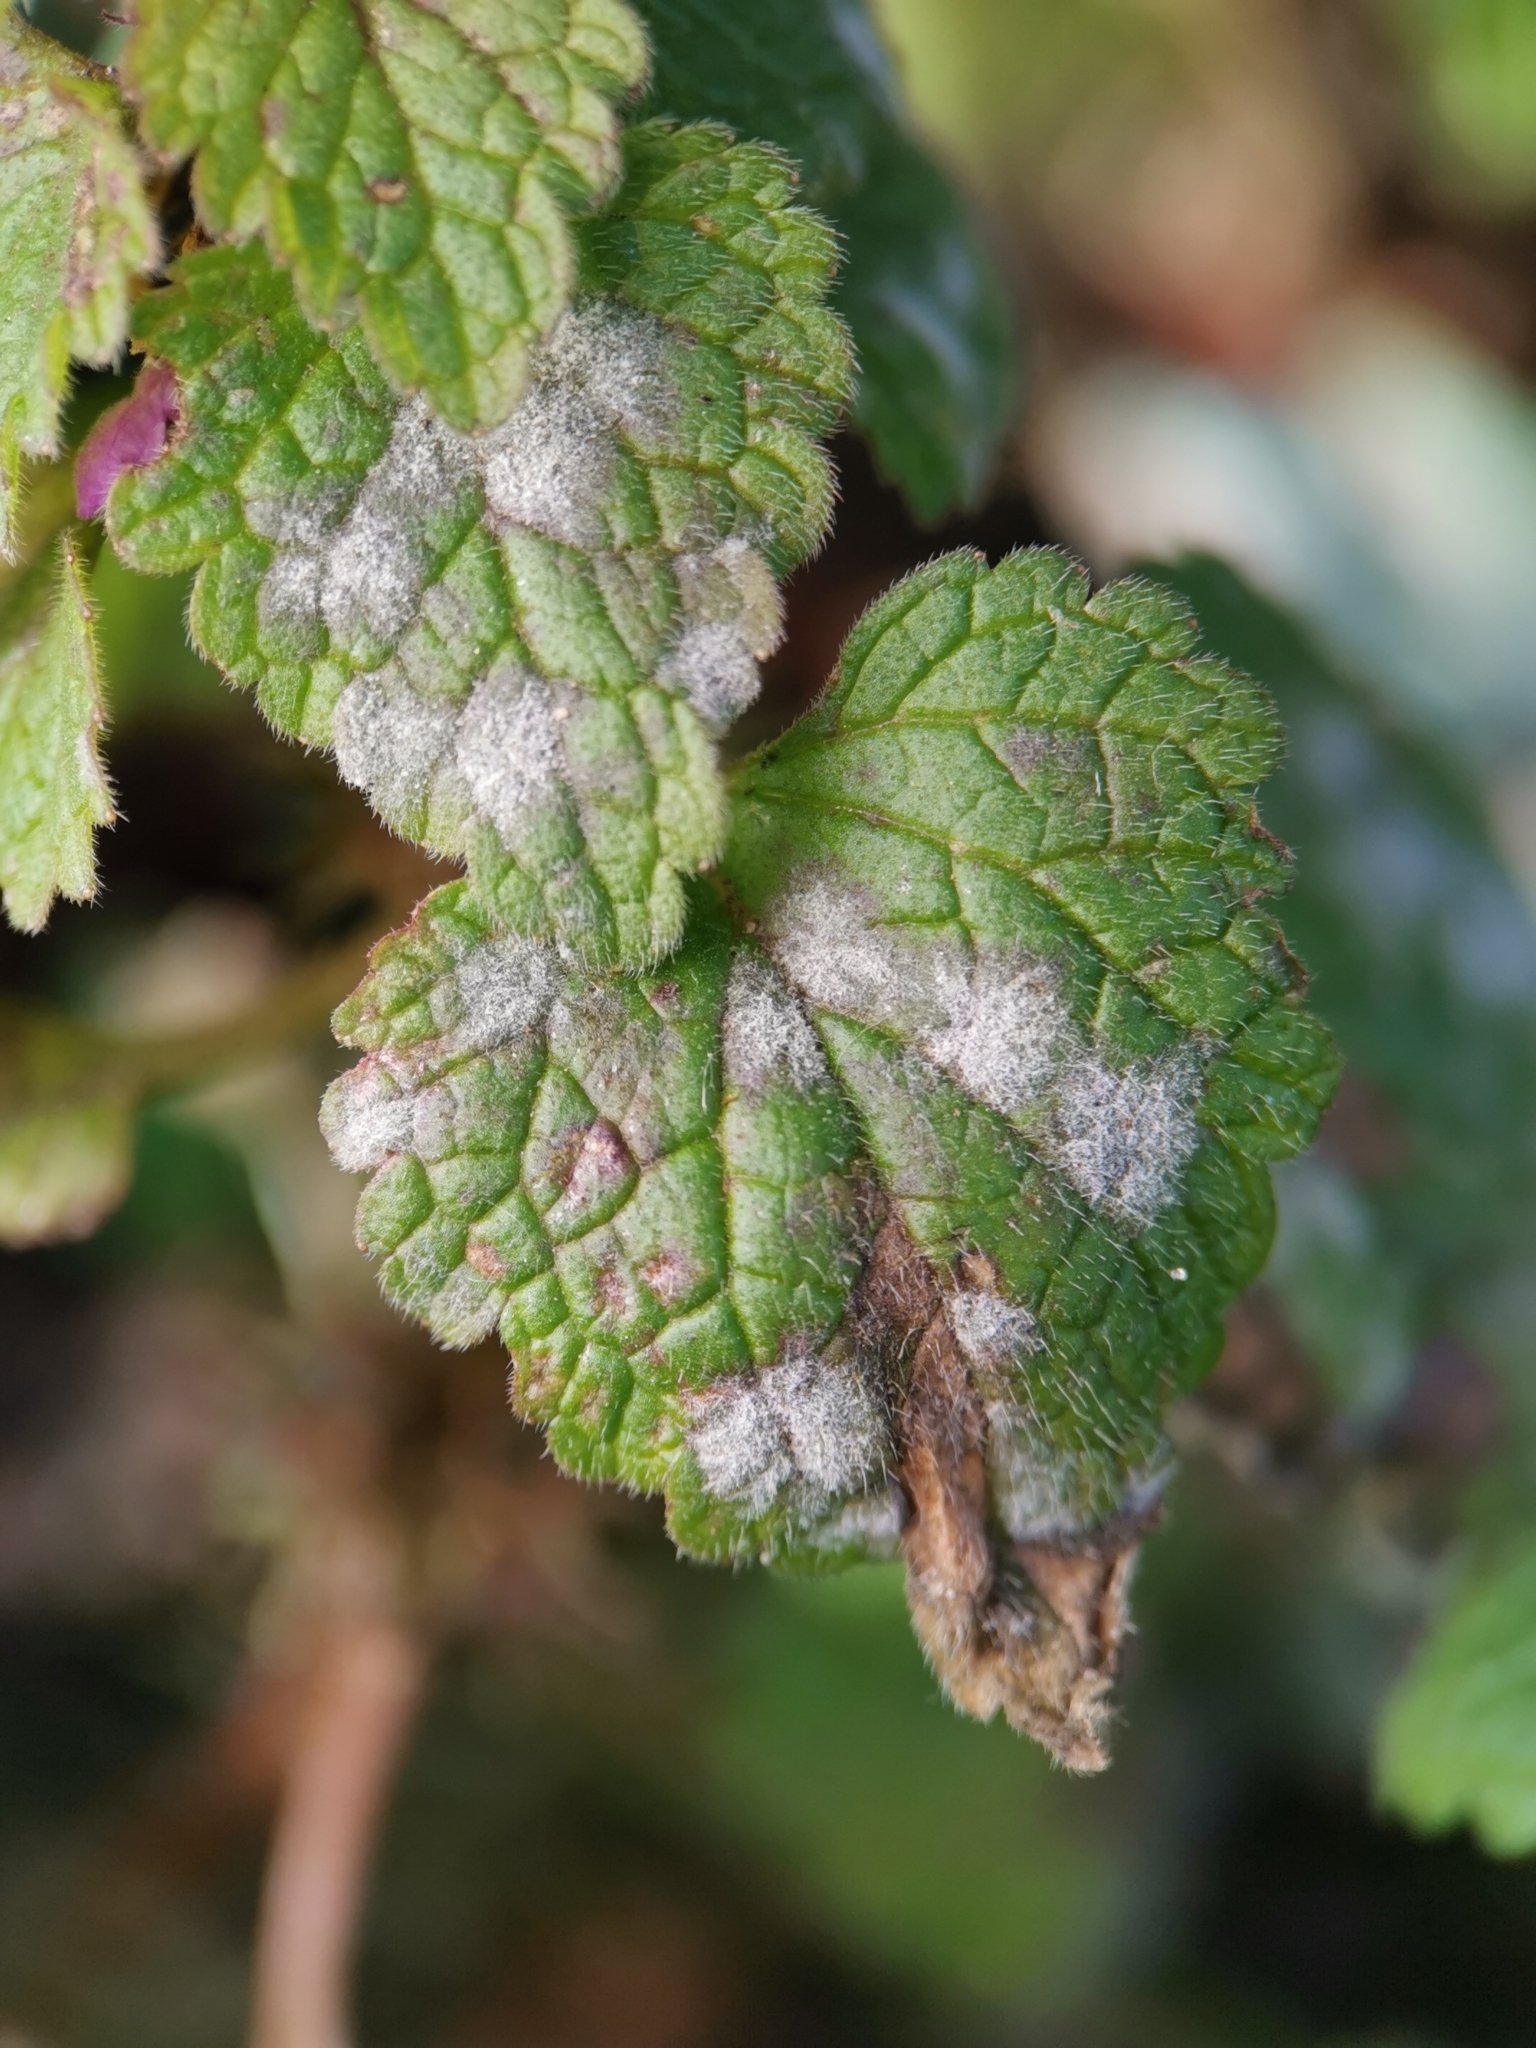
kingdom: Fungi
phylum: Ascomycota
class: Leotiomycetes
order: Helotiales
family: Erysiphaceae
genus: Neoerysiphe
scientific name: Neoerysiphe galeopsidis
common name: Mint mildew
